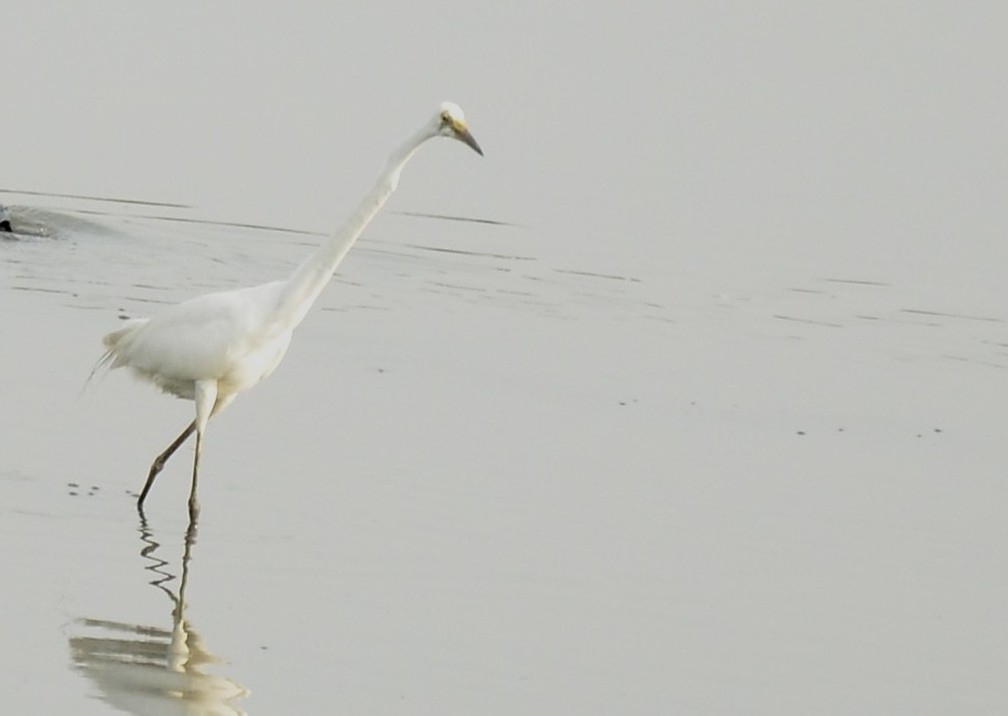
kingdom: Animalia
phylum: Chordata
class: Aves
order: Pelecaniformes
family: Ardeidae
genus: Ardea
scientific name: Ardea alba
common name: Great egret
